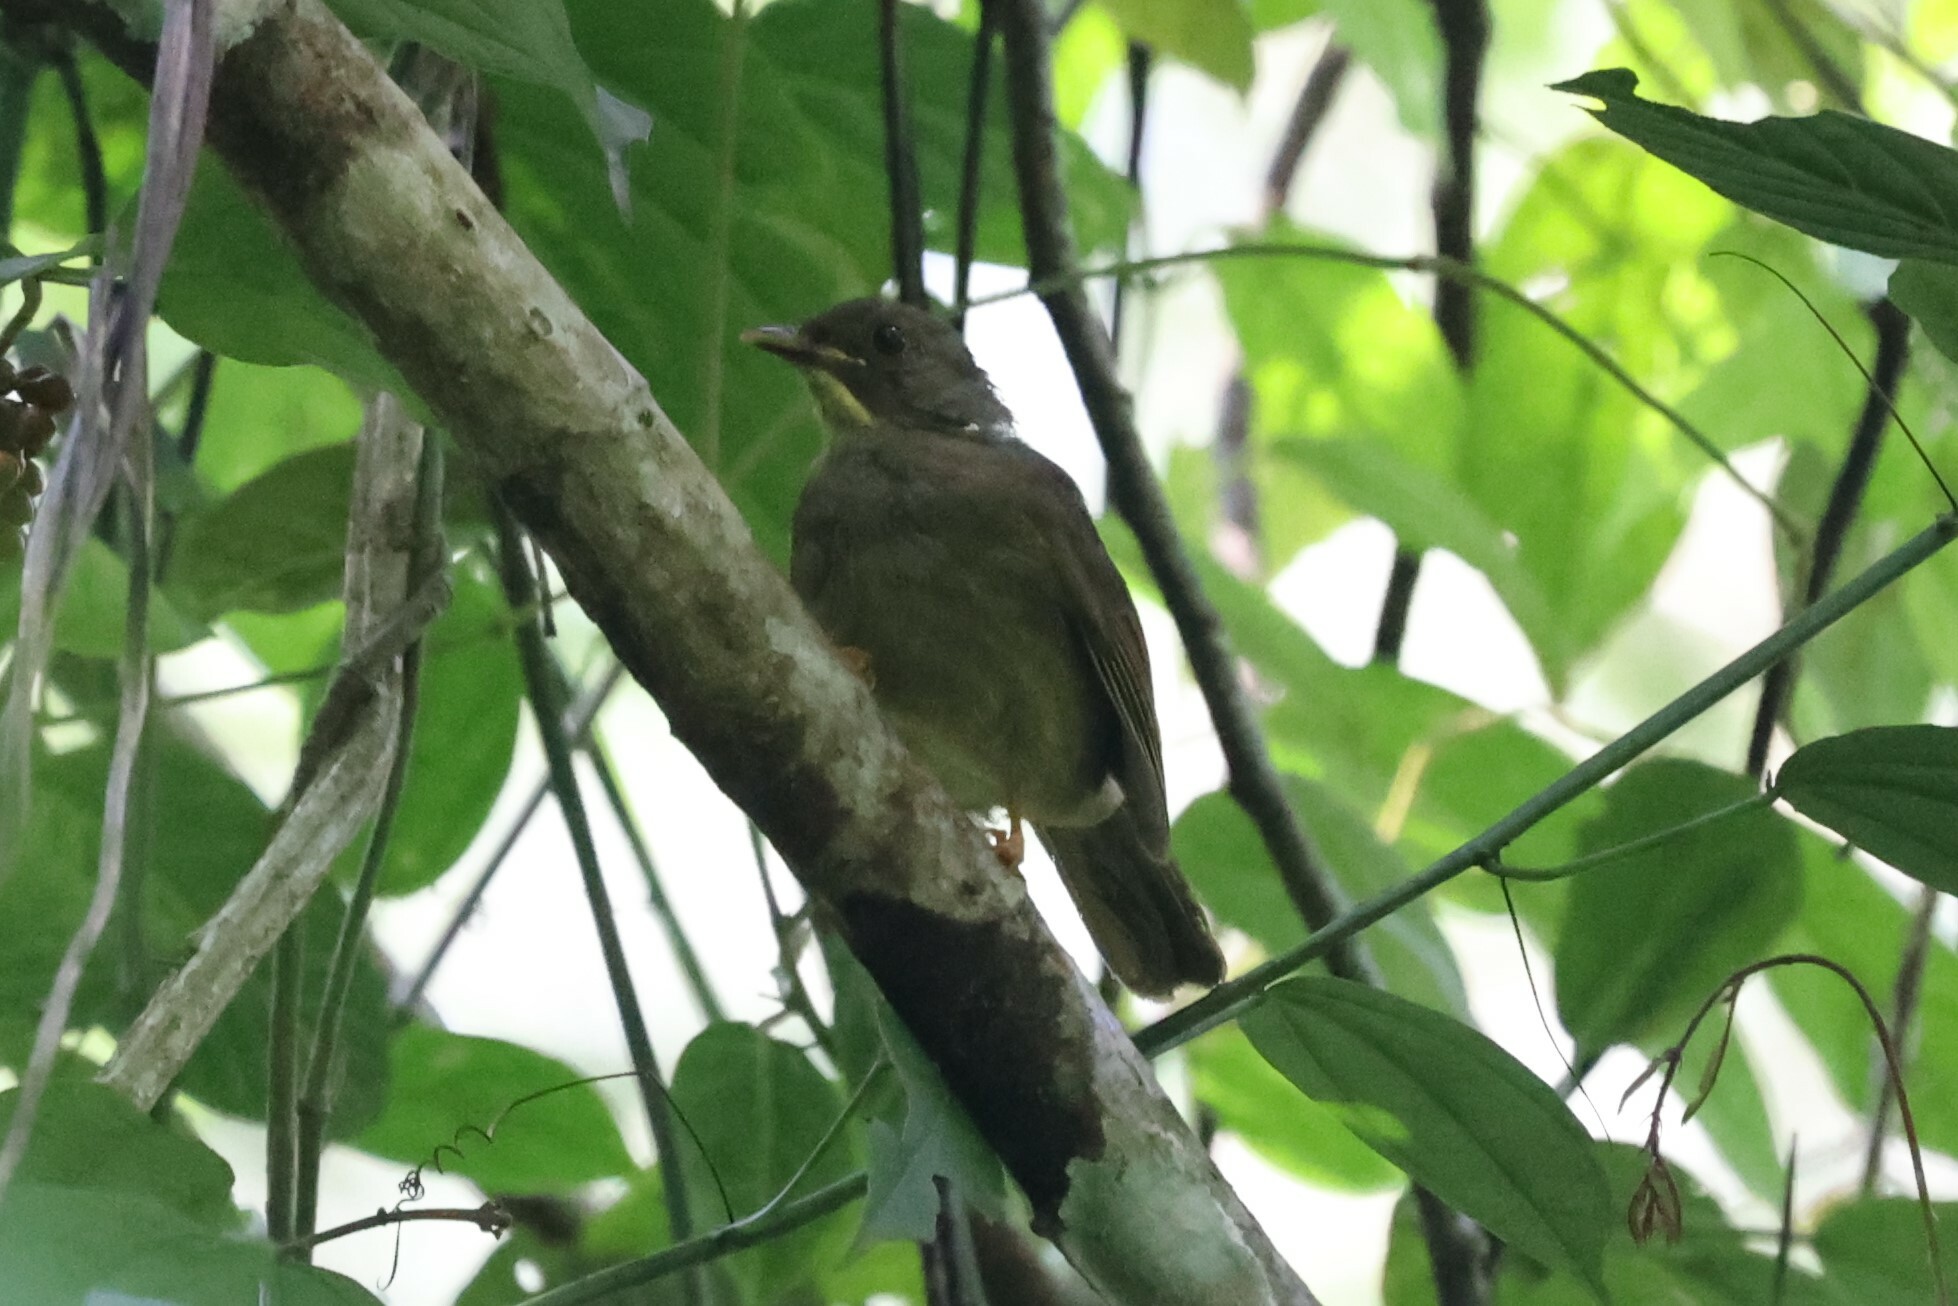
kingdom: Animalia
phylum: Chordata
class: Aves
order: Passeriformes
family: Pycnonotidae
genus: Eurillas
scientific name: Eurillas latirostris
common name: Yellow-whiskered greenbul
